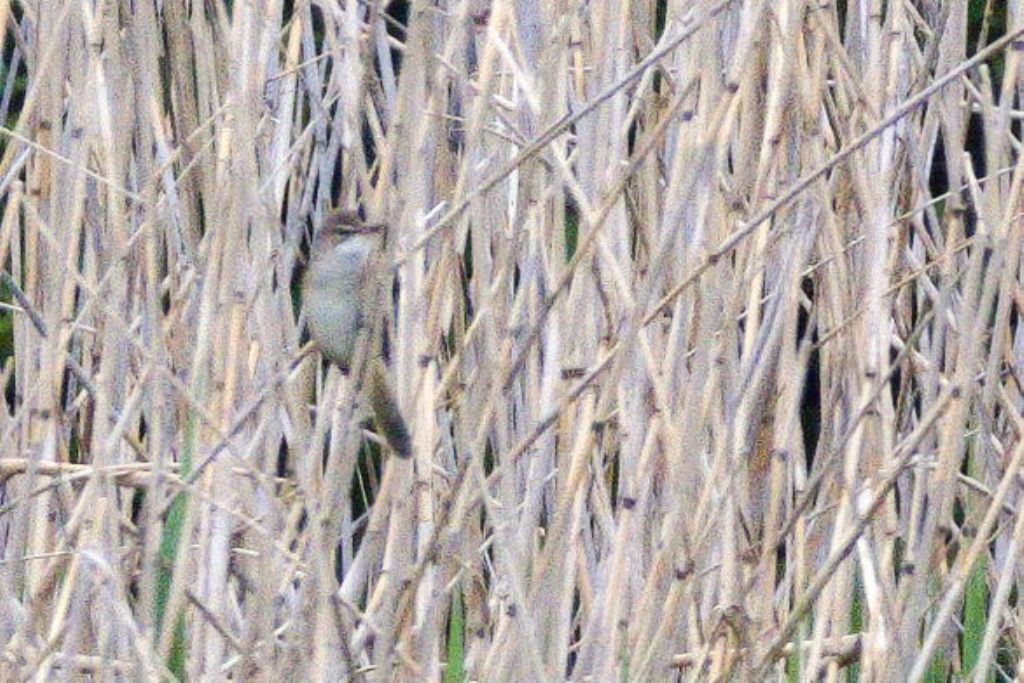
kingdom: Animalia
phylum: Chordata
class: Aves
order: Passeriformes
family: Acrocephalidae
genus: Acrocephalus
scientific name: Acrocephalus arundinaceus
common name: Great reed warbler
